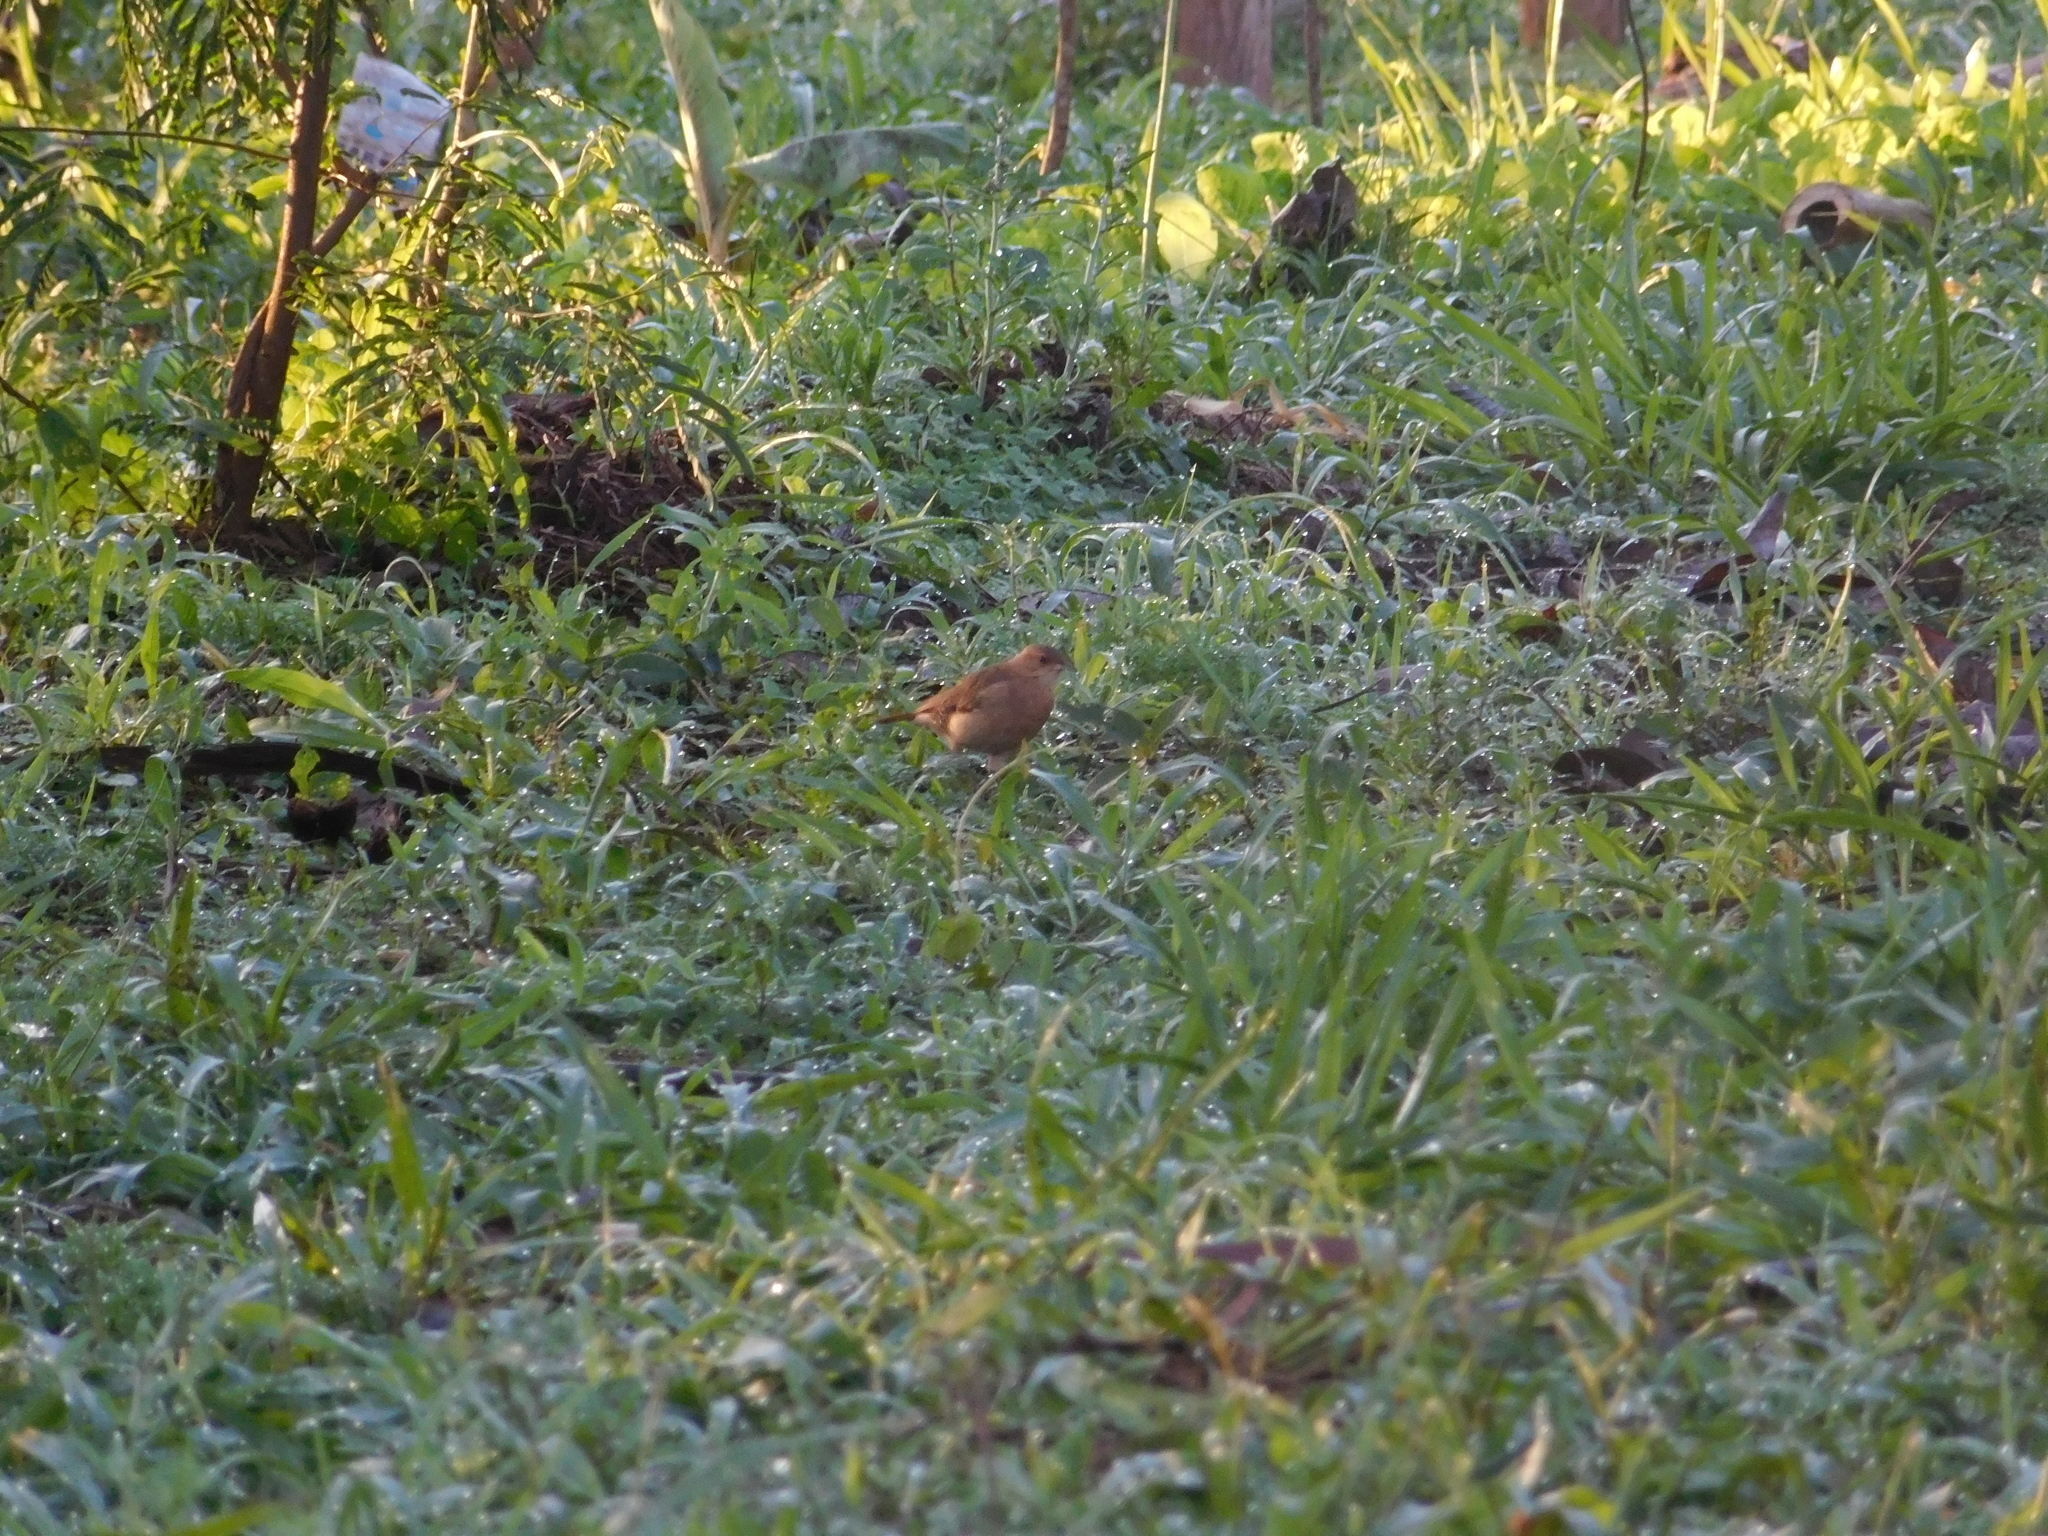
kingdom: Animalia
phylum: Chordata
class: Aves
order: Passeriformes
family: Furnariidae
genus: Furnarius
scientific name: Furnarius rufus
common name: Rufous hornero
